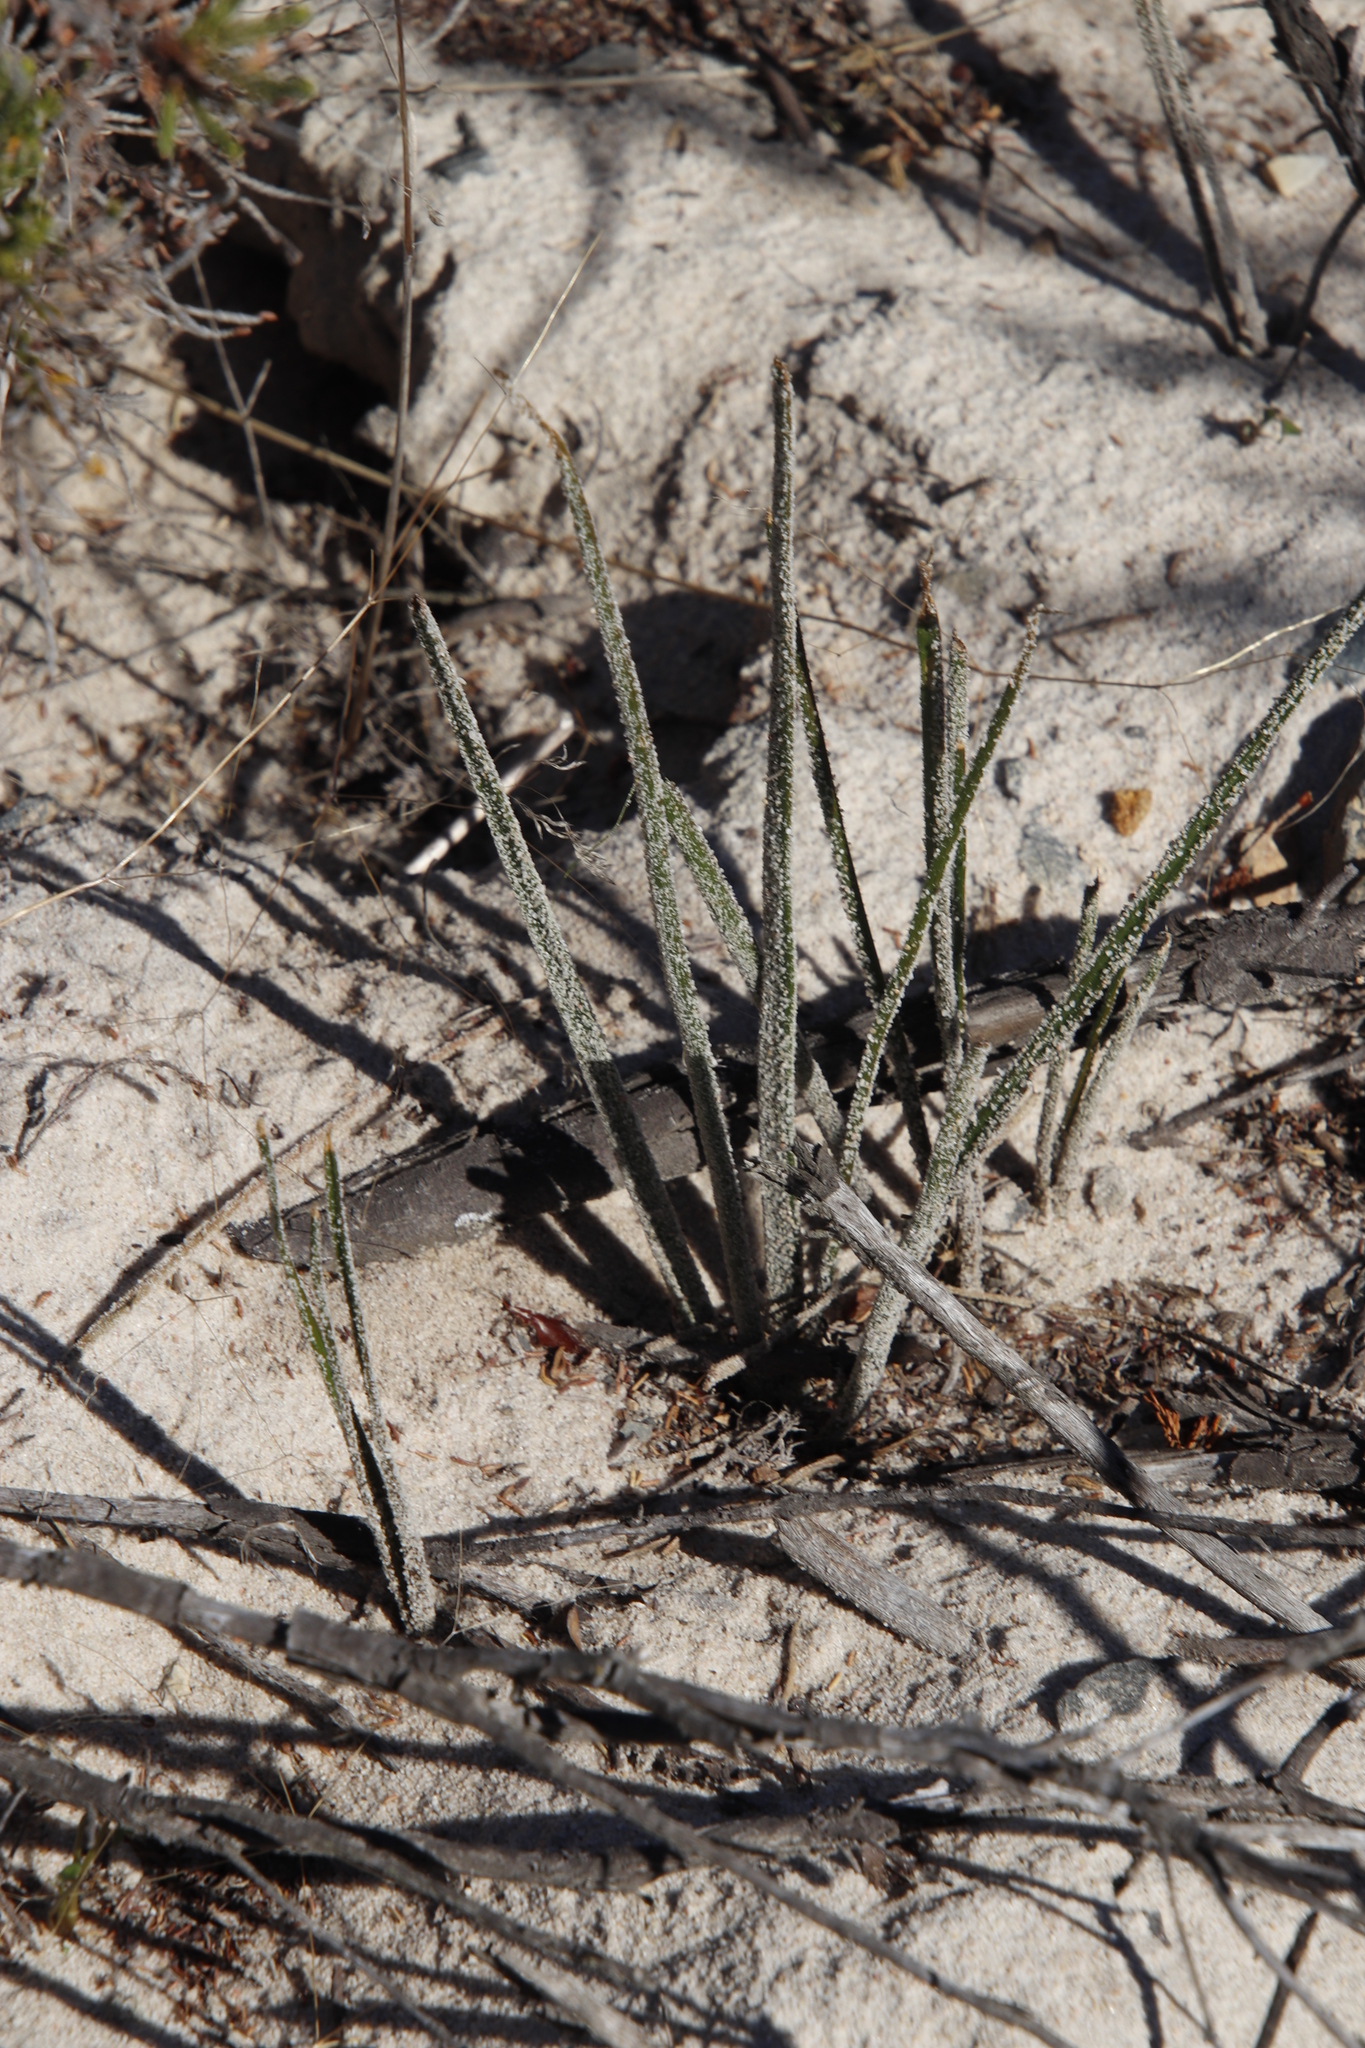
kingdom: Plantae
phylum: Tracheophyta
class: Liliopsida
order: Asparagales
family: Asphodelaceae
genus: Trachyandra
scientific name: Trachyandra revoluta
